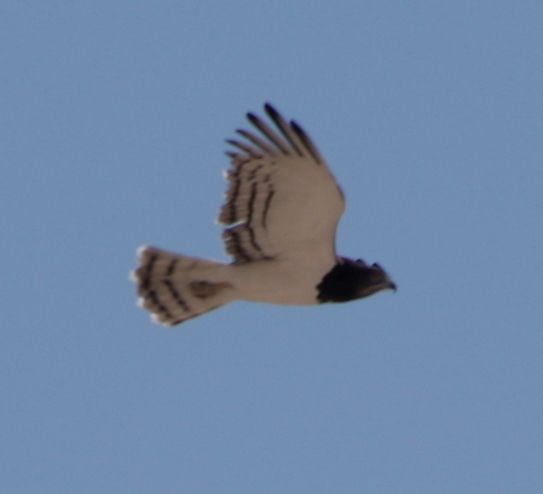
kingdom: Animalia
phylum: Chordata
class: Aves
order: Accipitriformes
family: Accipitridae
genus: Circaetus
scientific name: Circaetus pectoralis
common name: Black-chested snake eagle
